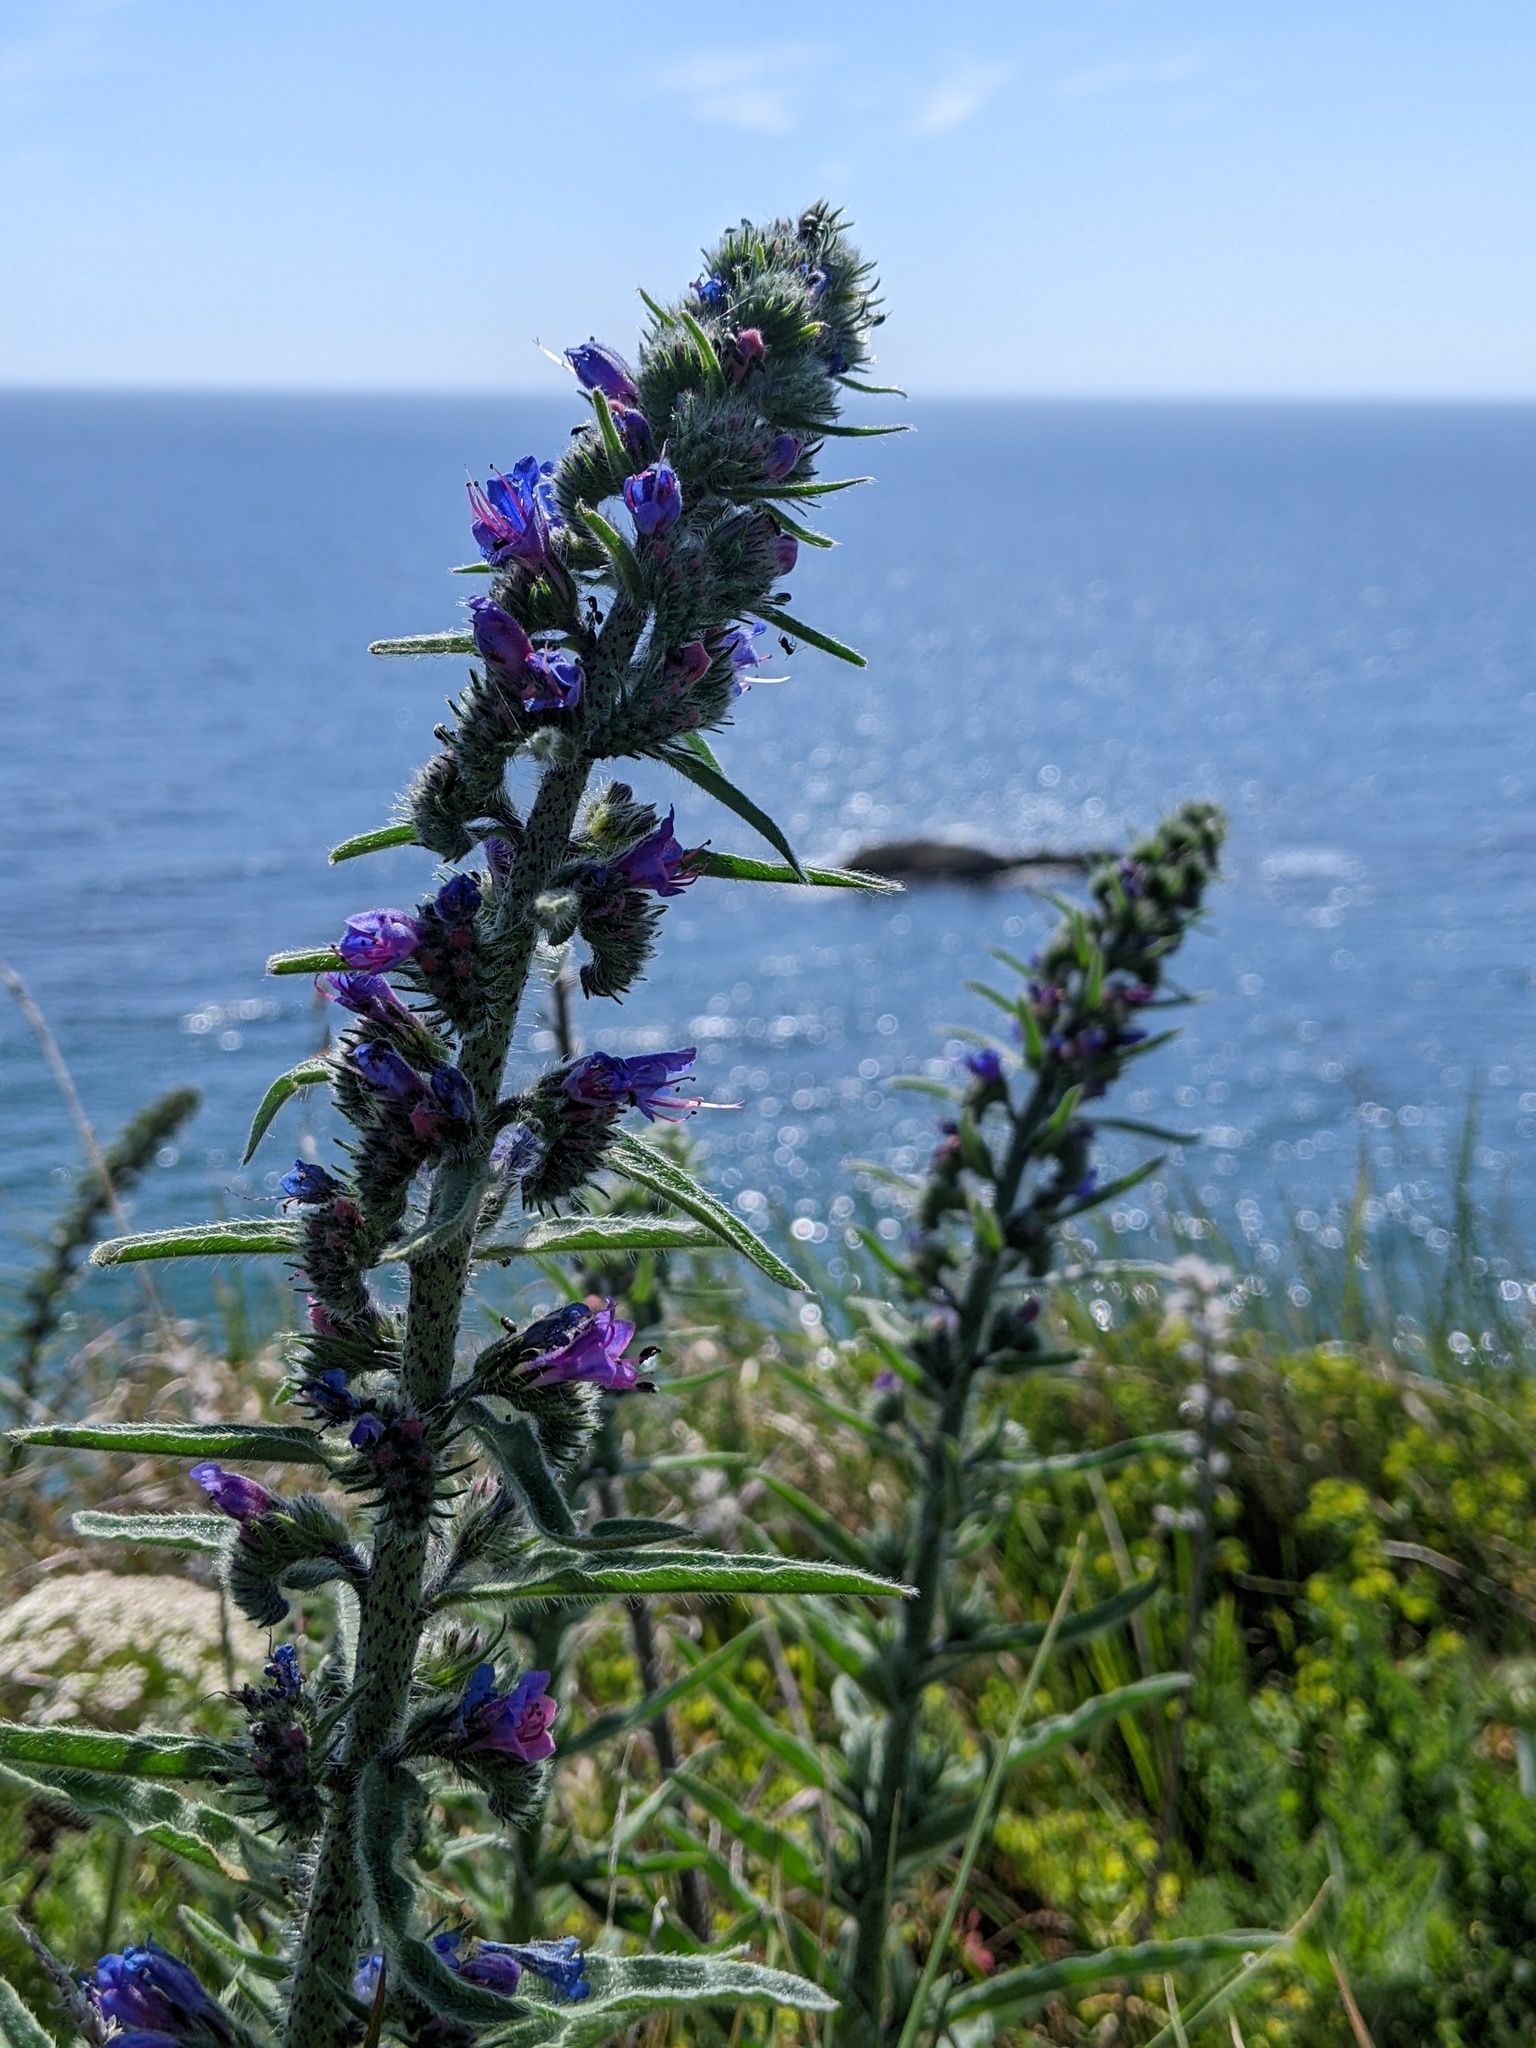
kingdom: Plantae
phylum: Tracheophyta
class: Magnoliopsida
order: Boraginales
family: Boraginaceae
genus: Echium
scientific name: Echium vulgare
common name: Common viper's bugloss
